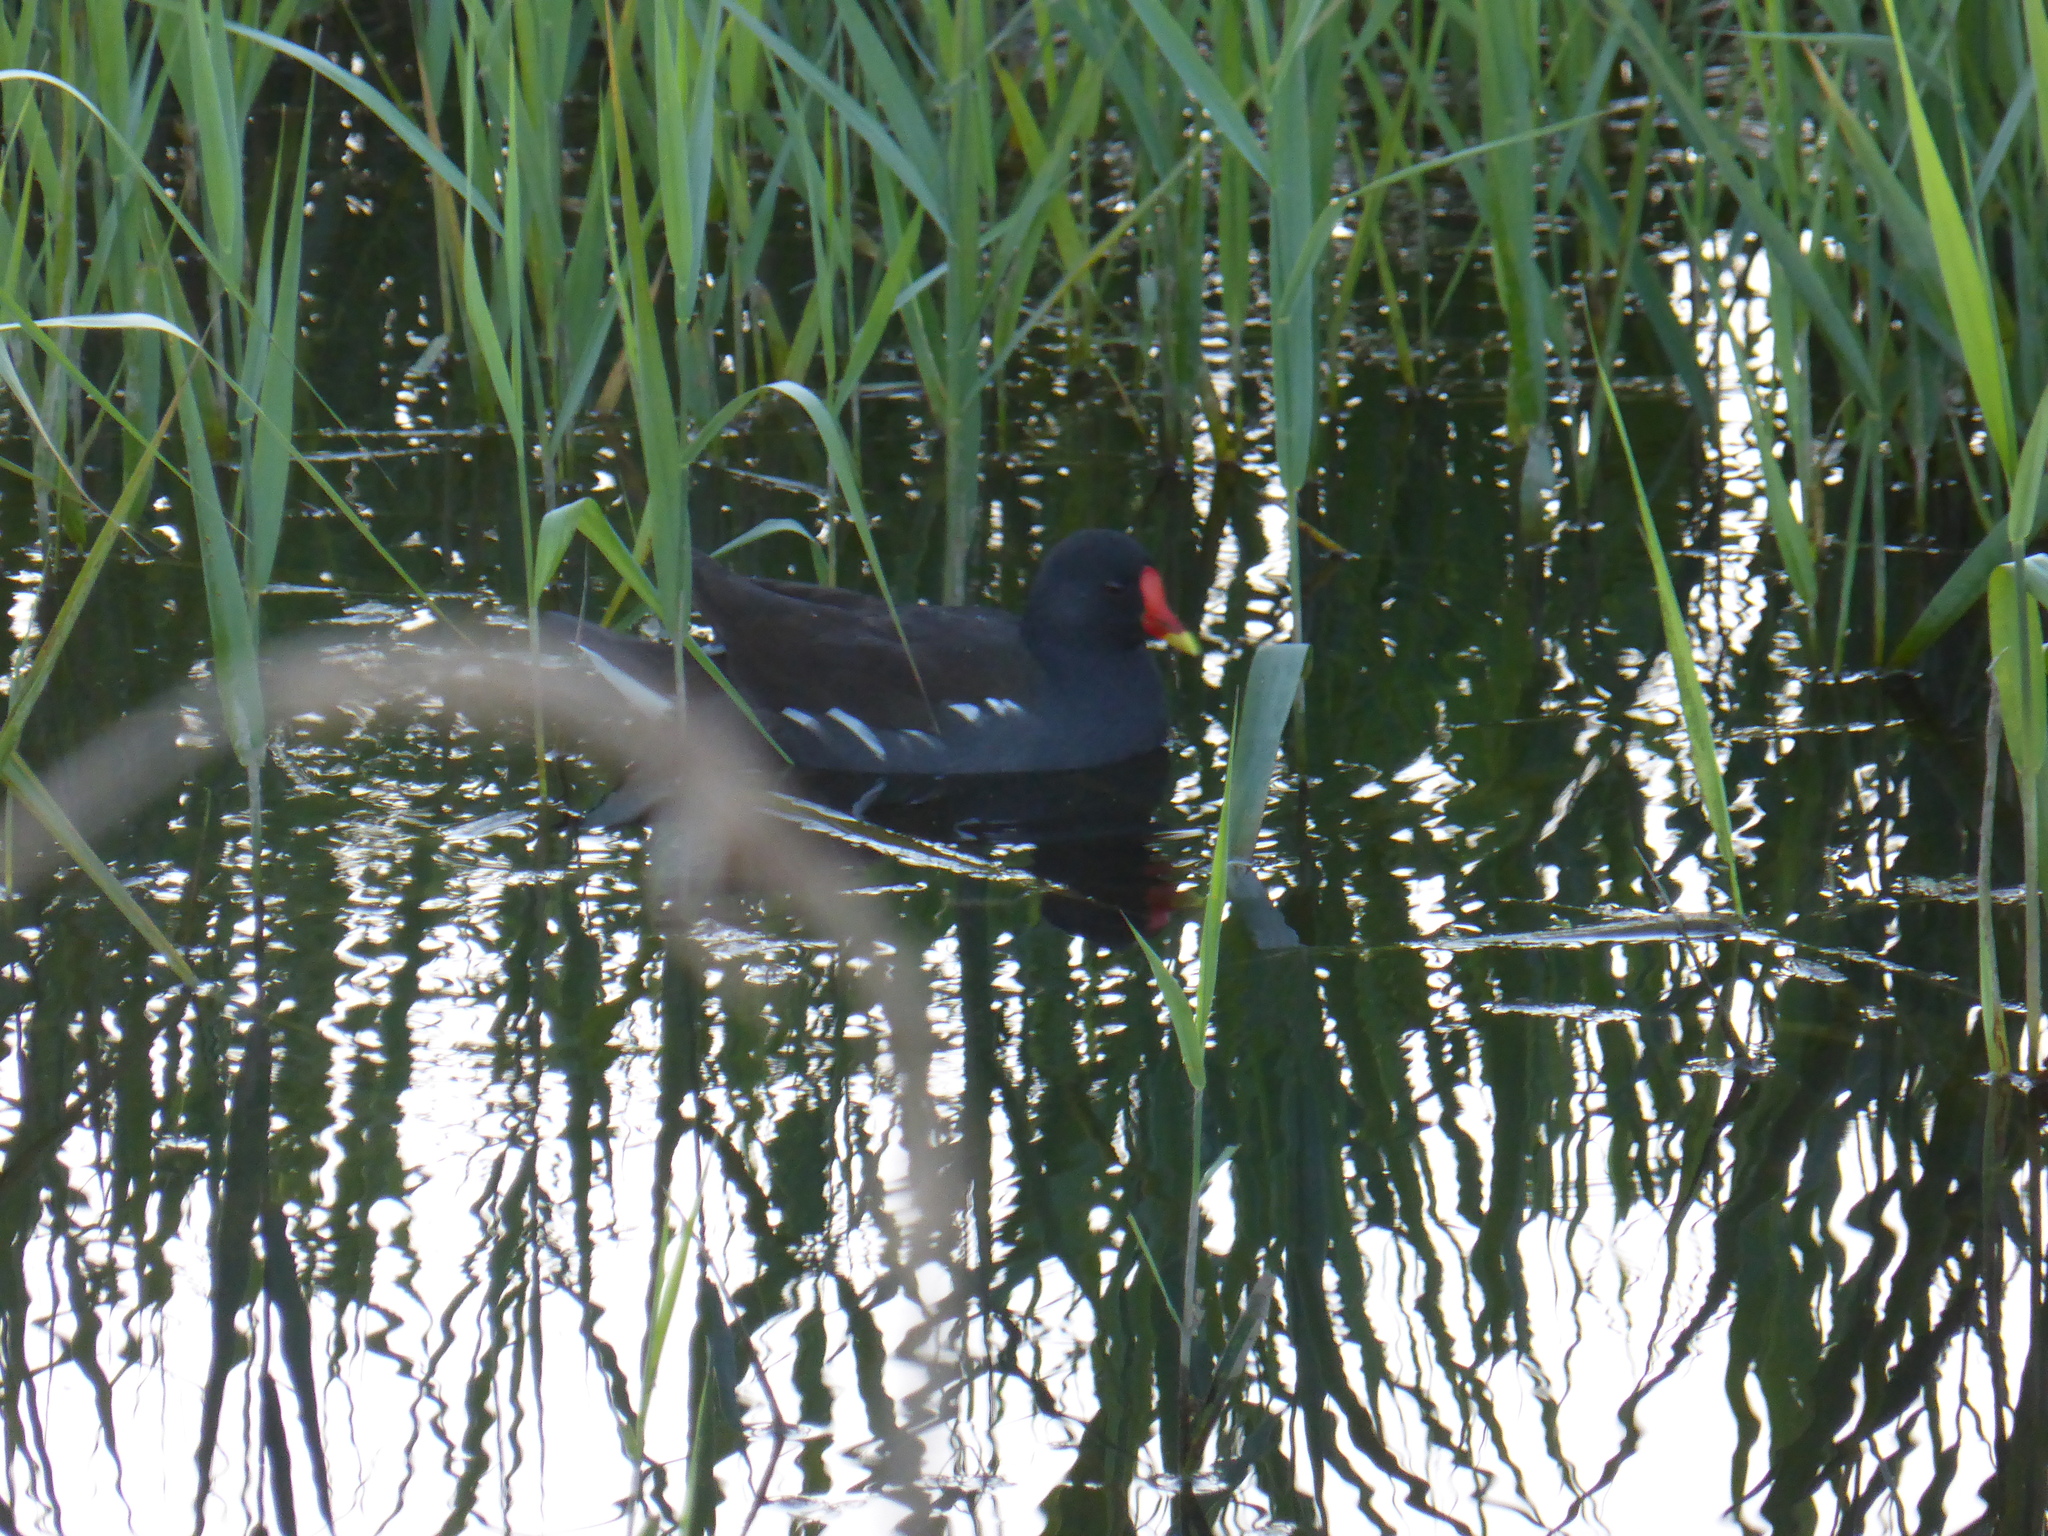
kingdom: Animalia
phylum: Chordata
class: Aves
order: Gruiformes
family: Rallidae
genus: Gallinula
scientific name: Gallinula chloropus
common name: Common moorhen
